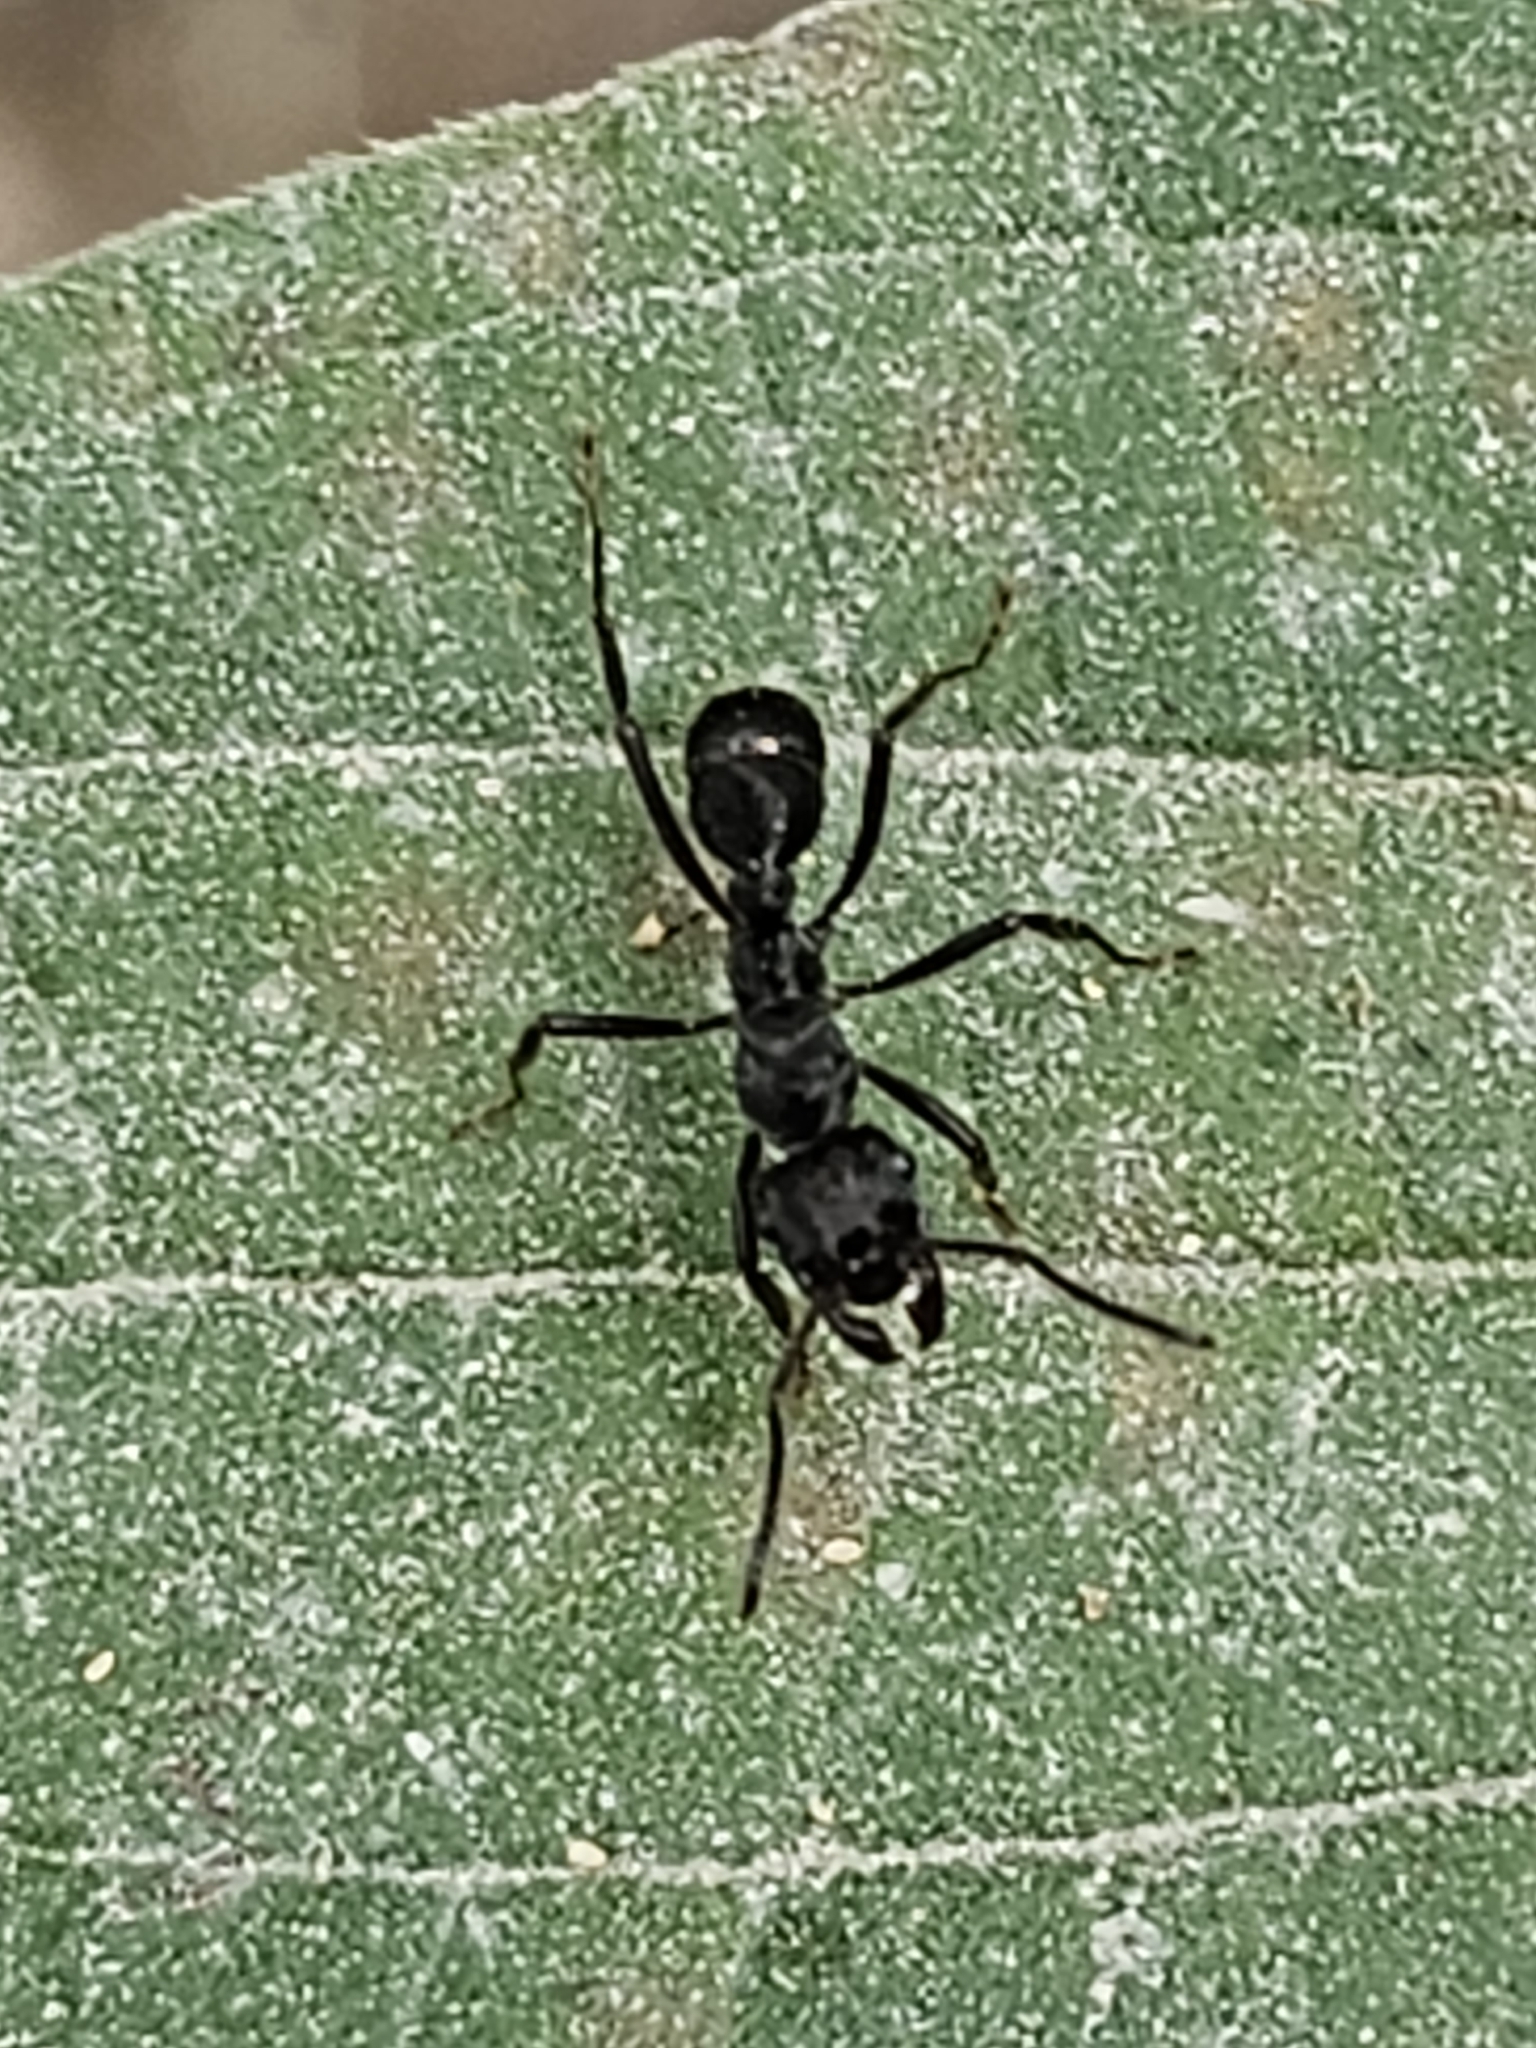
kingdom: Animalia
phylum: Arthropoda
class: Insecta
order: Hymenoptera
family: Formicidae
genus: Ectatomma
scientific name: Ectatomma brunneum
